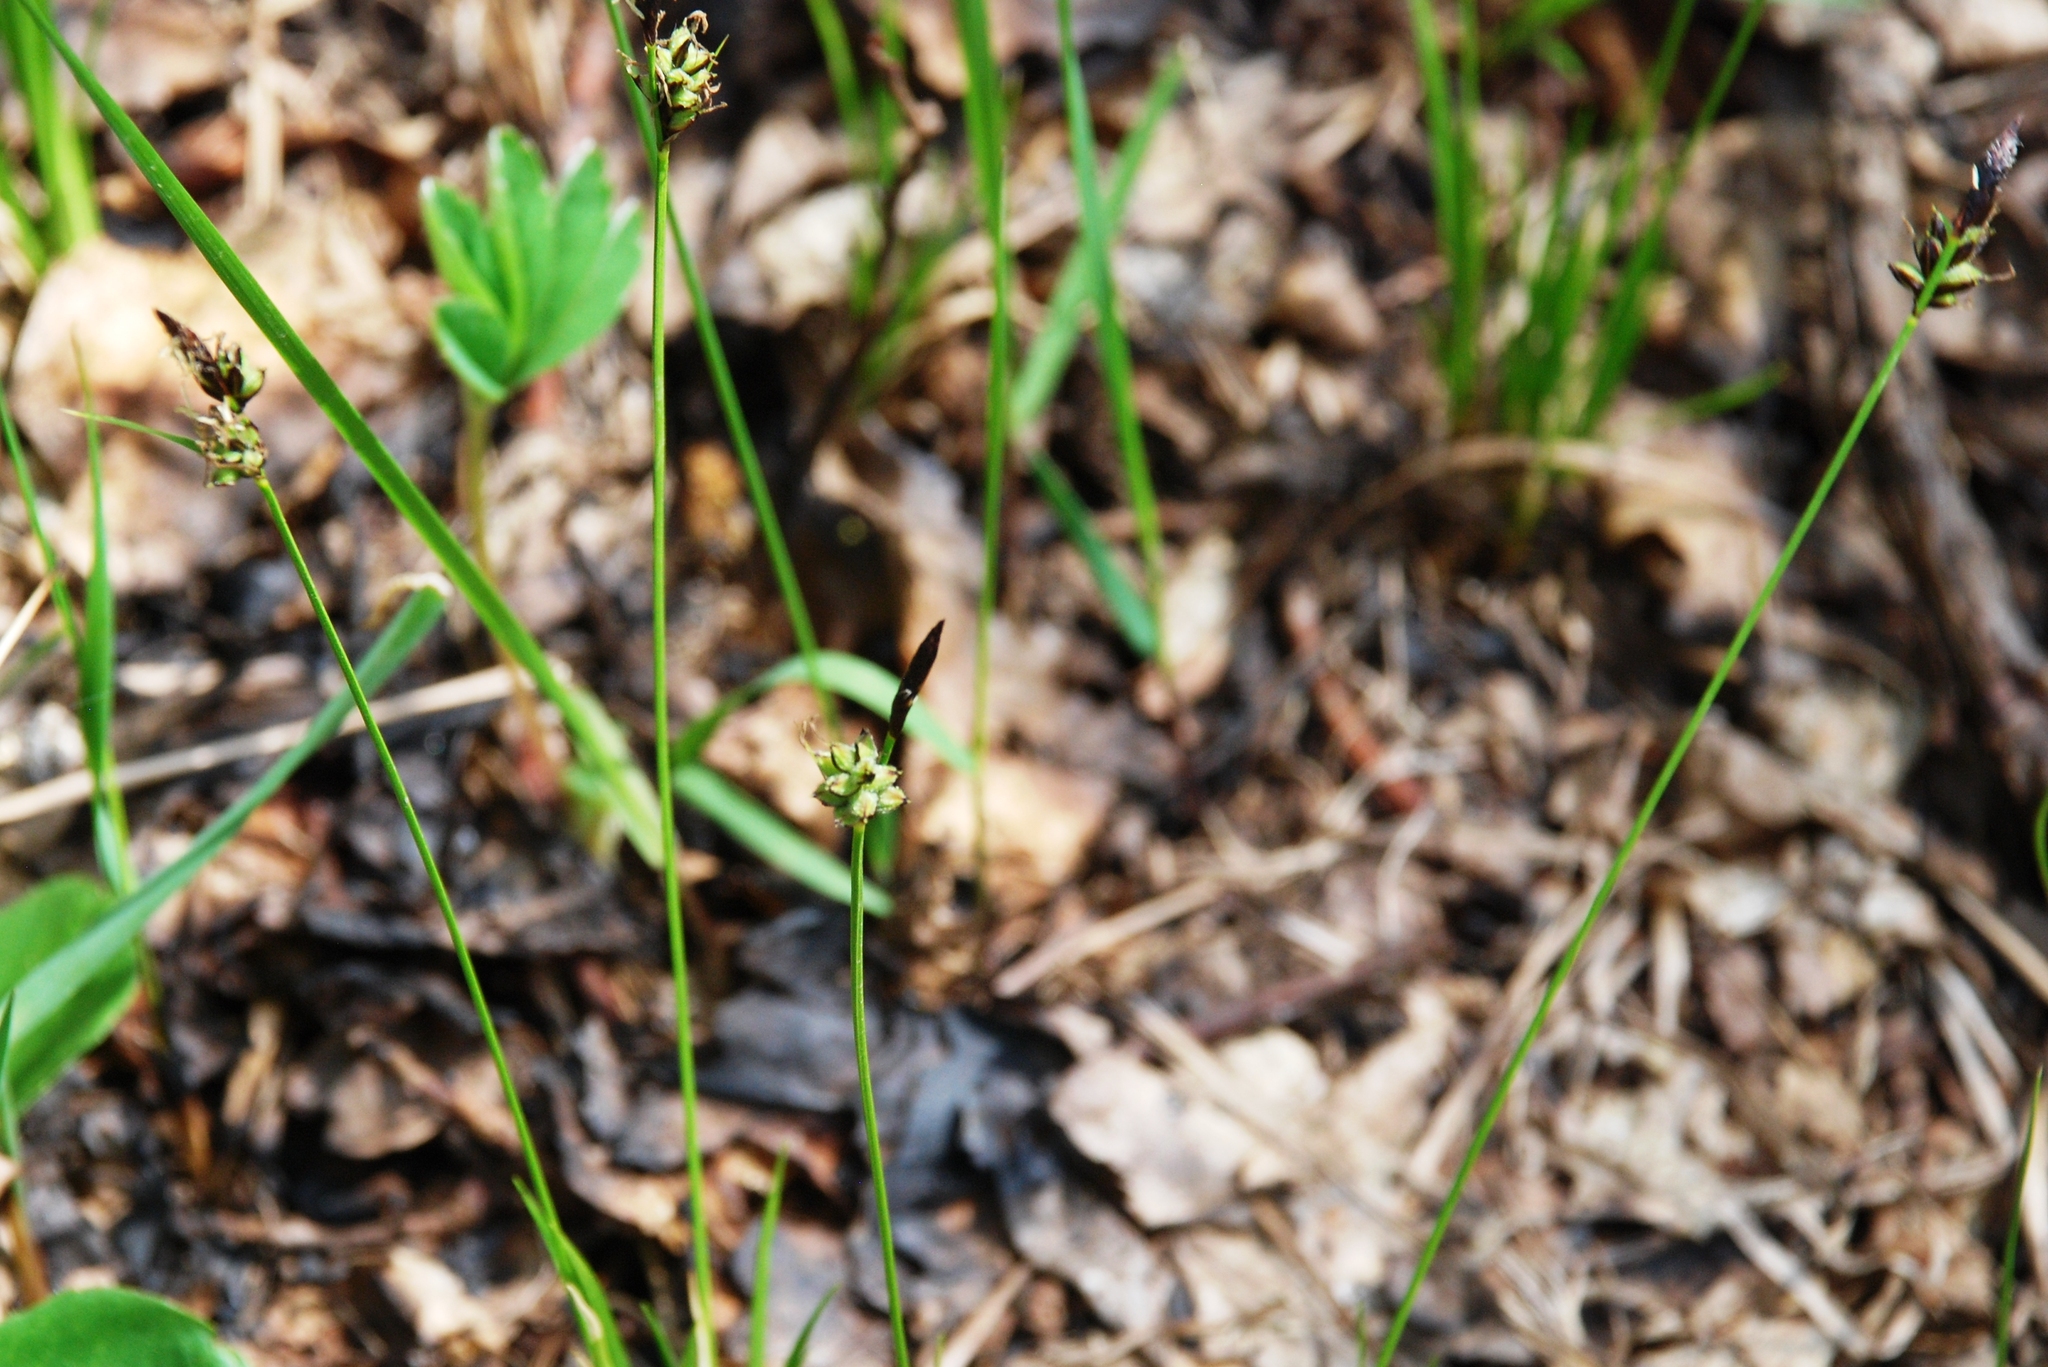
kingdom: Plantae
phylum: Tracheophyta
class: Liliopsida
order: Poales
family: Cyperaceae
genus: Carex
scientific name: Carex montana
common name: Soft-leaved sedge
